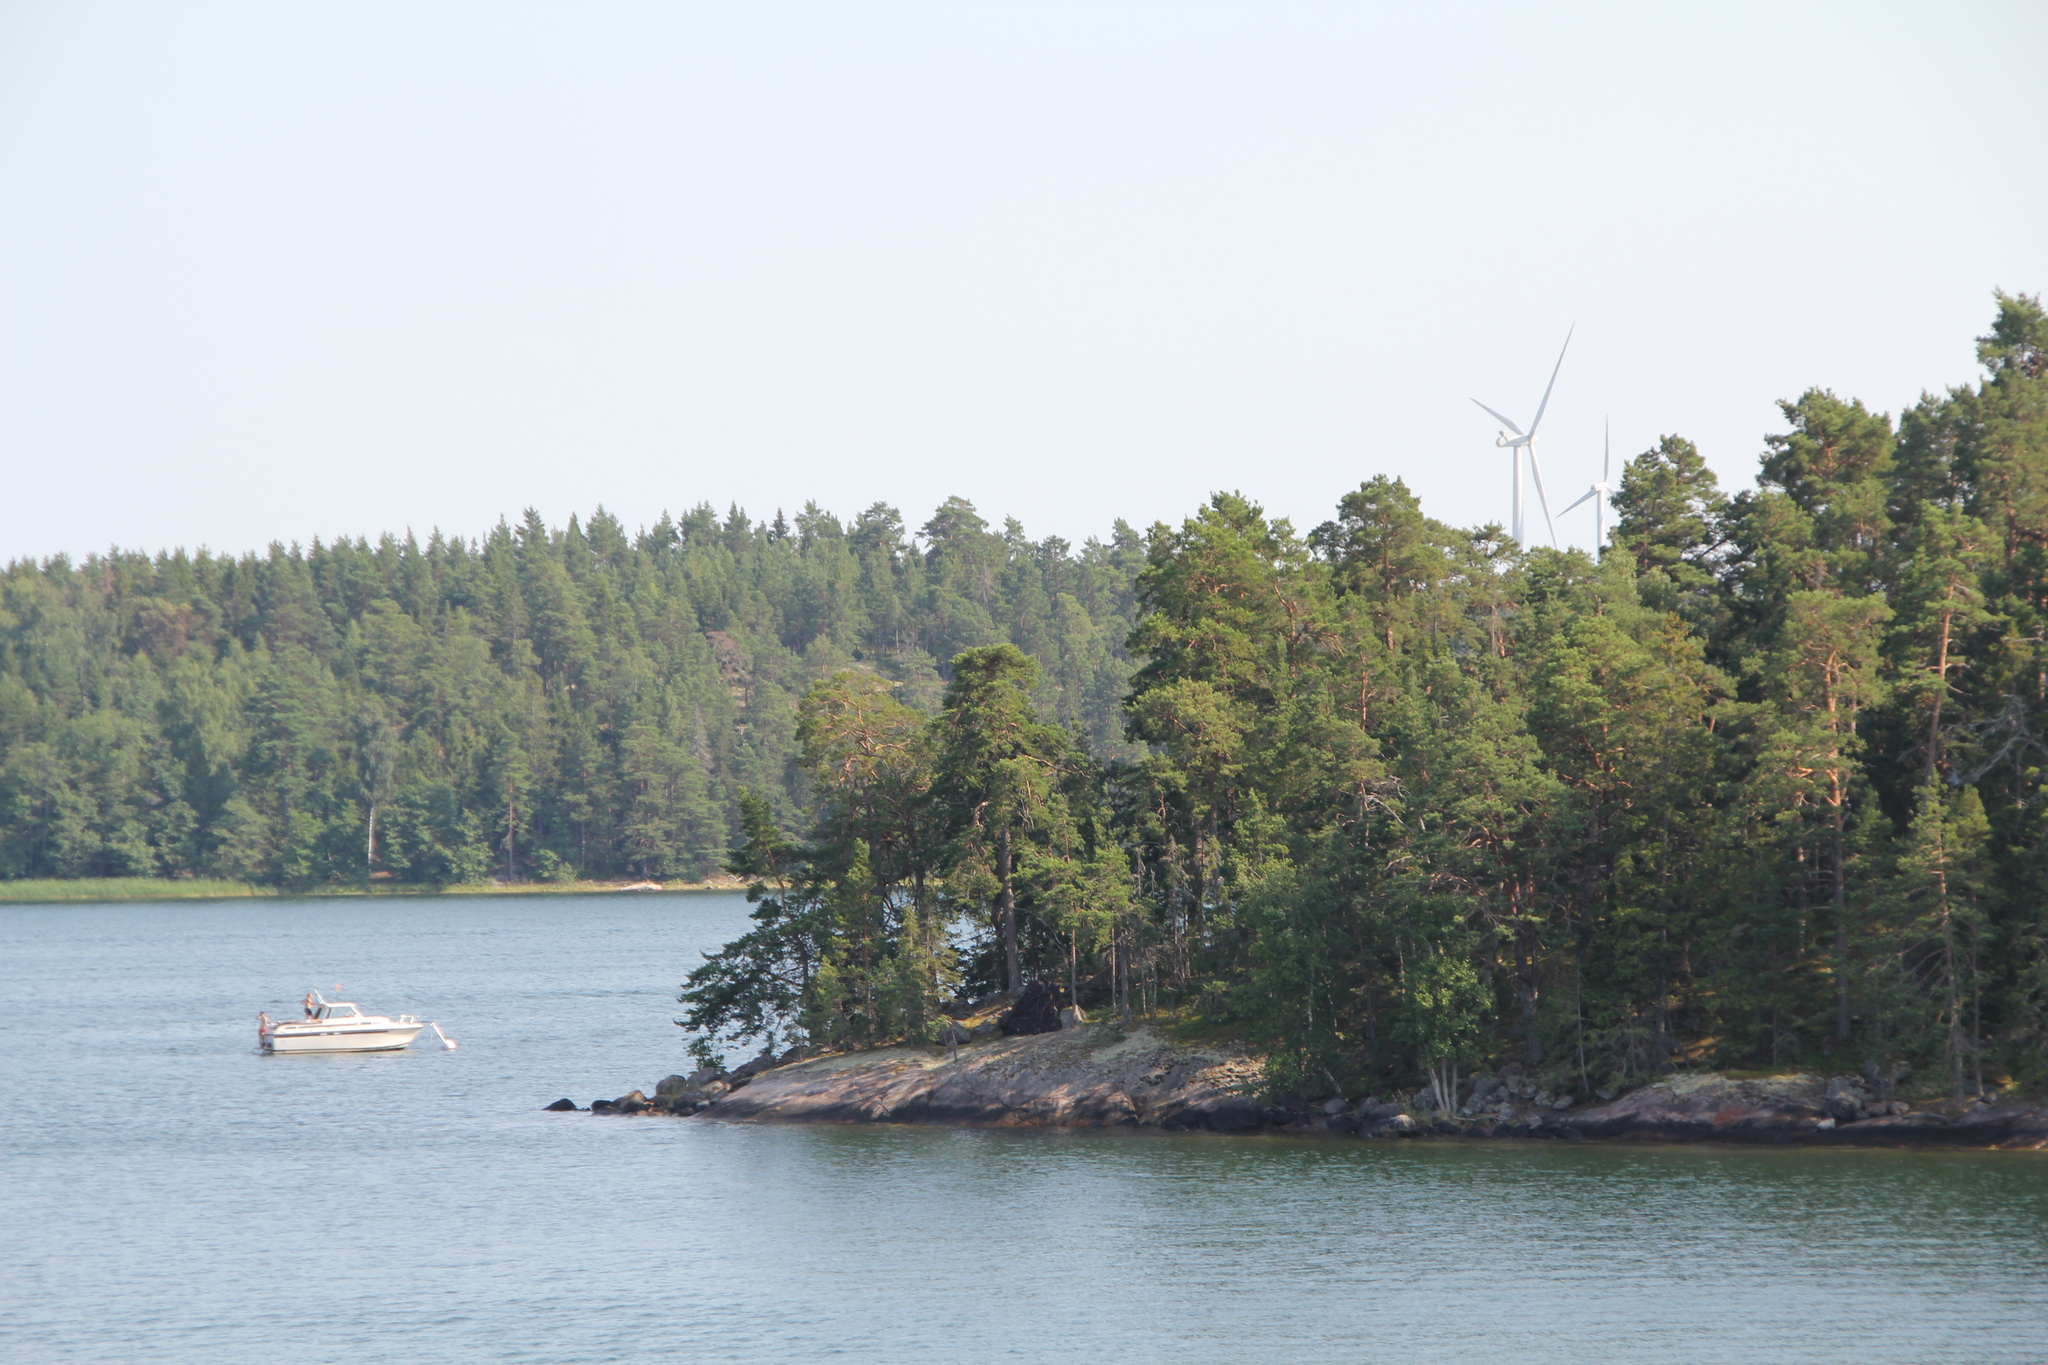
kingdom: Plantae
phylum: Tracheophyta
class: Pinopsida
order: Pinales
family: Pinaceae
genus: Pinus
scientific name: Pinus sylvestris
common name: Scots pine
